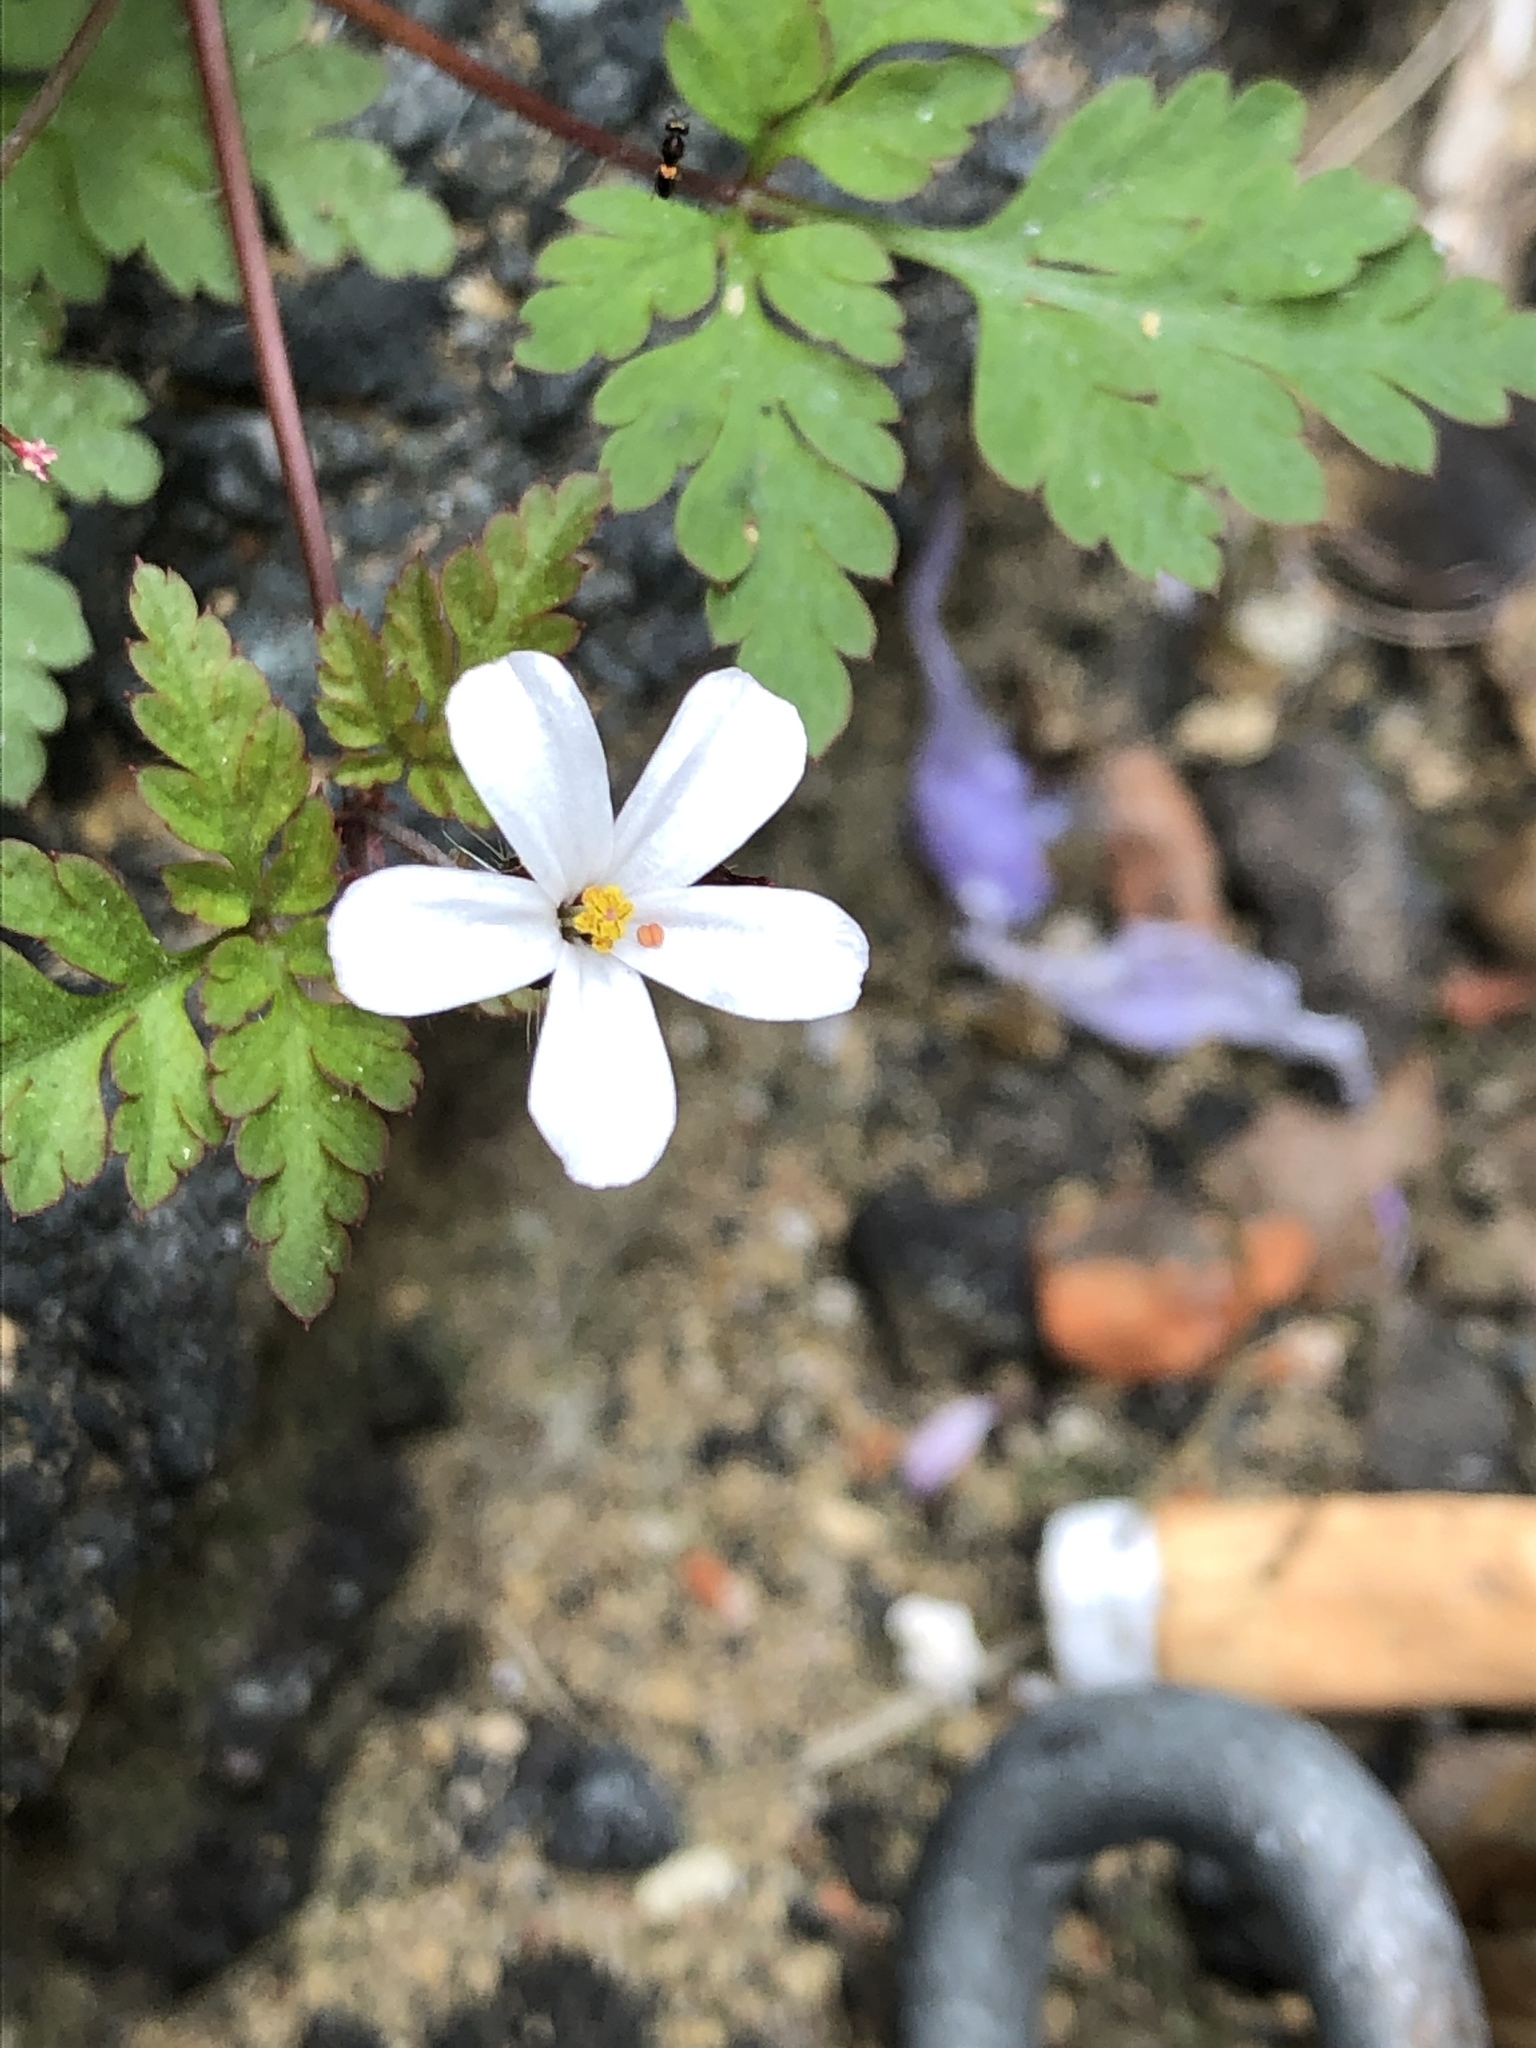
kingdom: Plantae
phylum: Tracheophyta
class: Magnoliopsida
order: Geraniales
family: Geraniaceae
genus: Geranium
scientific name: Geranium robertianum
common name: Herb-robert
